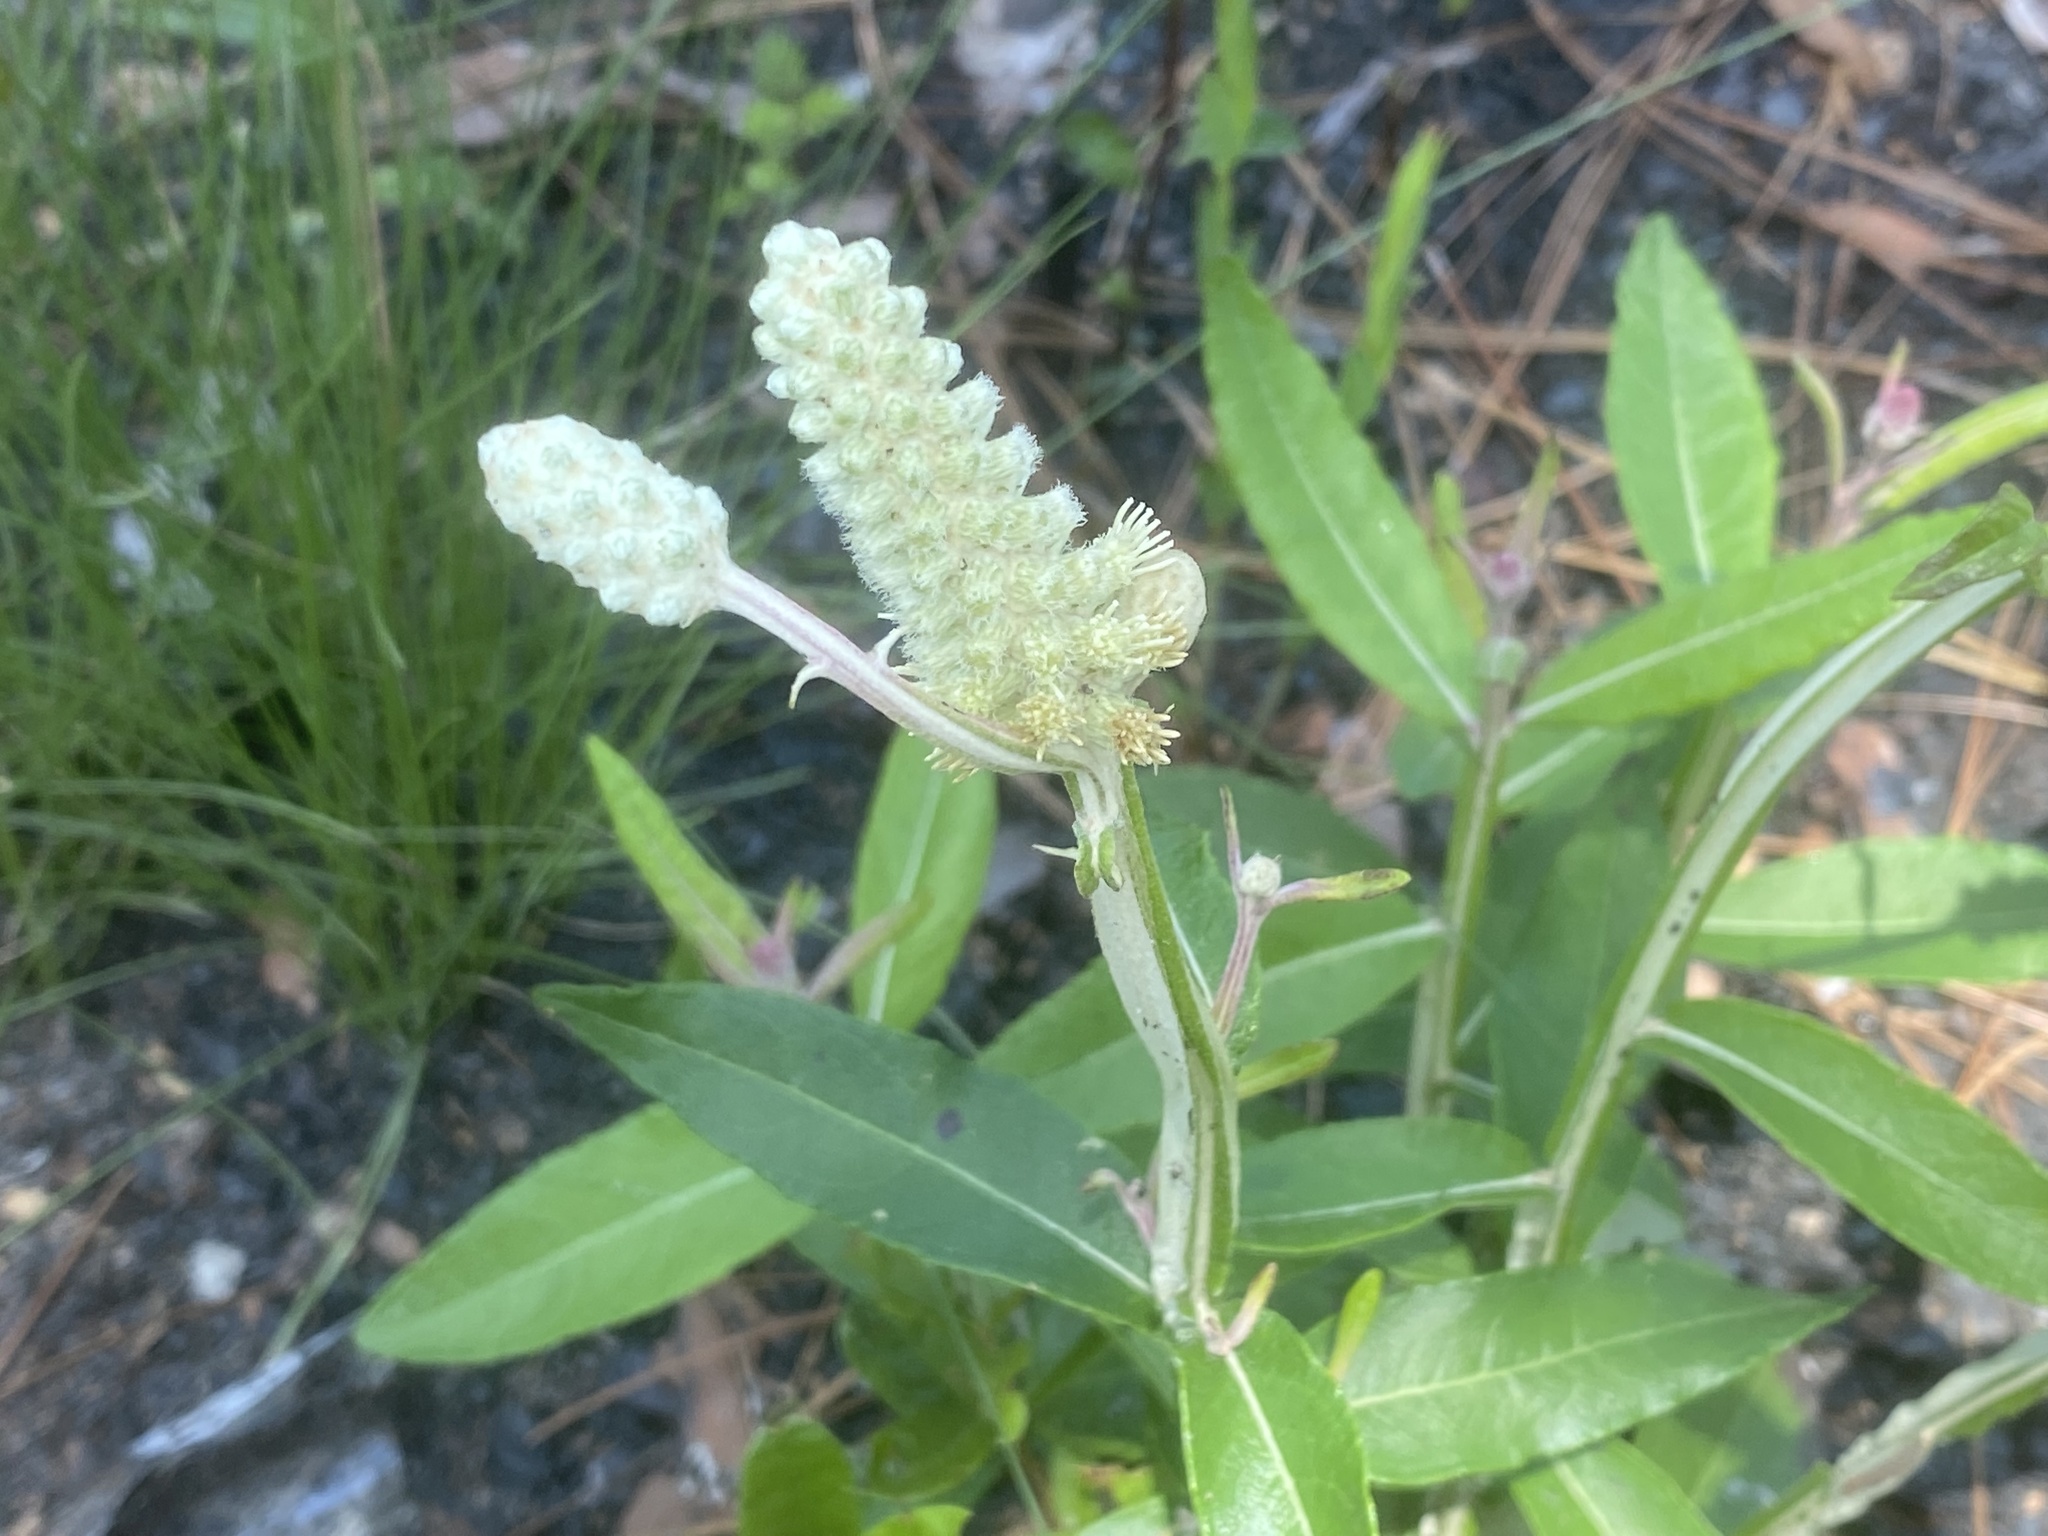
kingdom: Plantae
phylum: Tracheophyta
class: Magnoliopsida
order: Asterales
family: Asteraceae
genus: Pterocaulon
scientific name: Pterocaulon pycnostachyum
